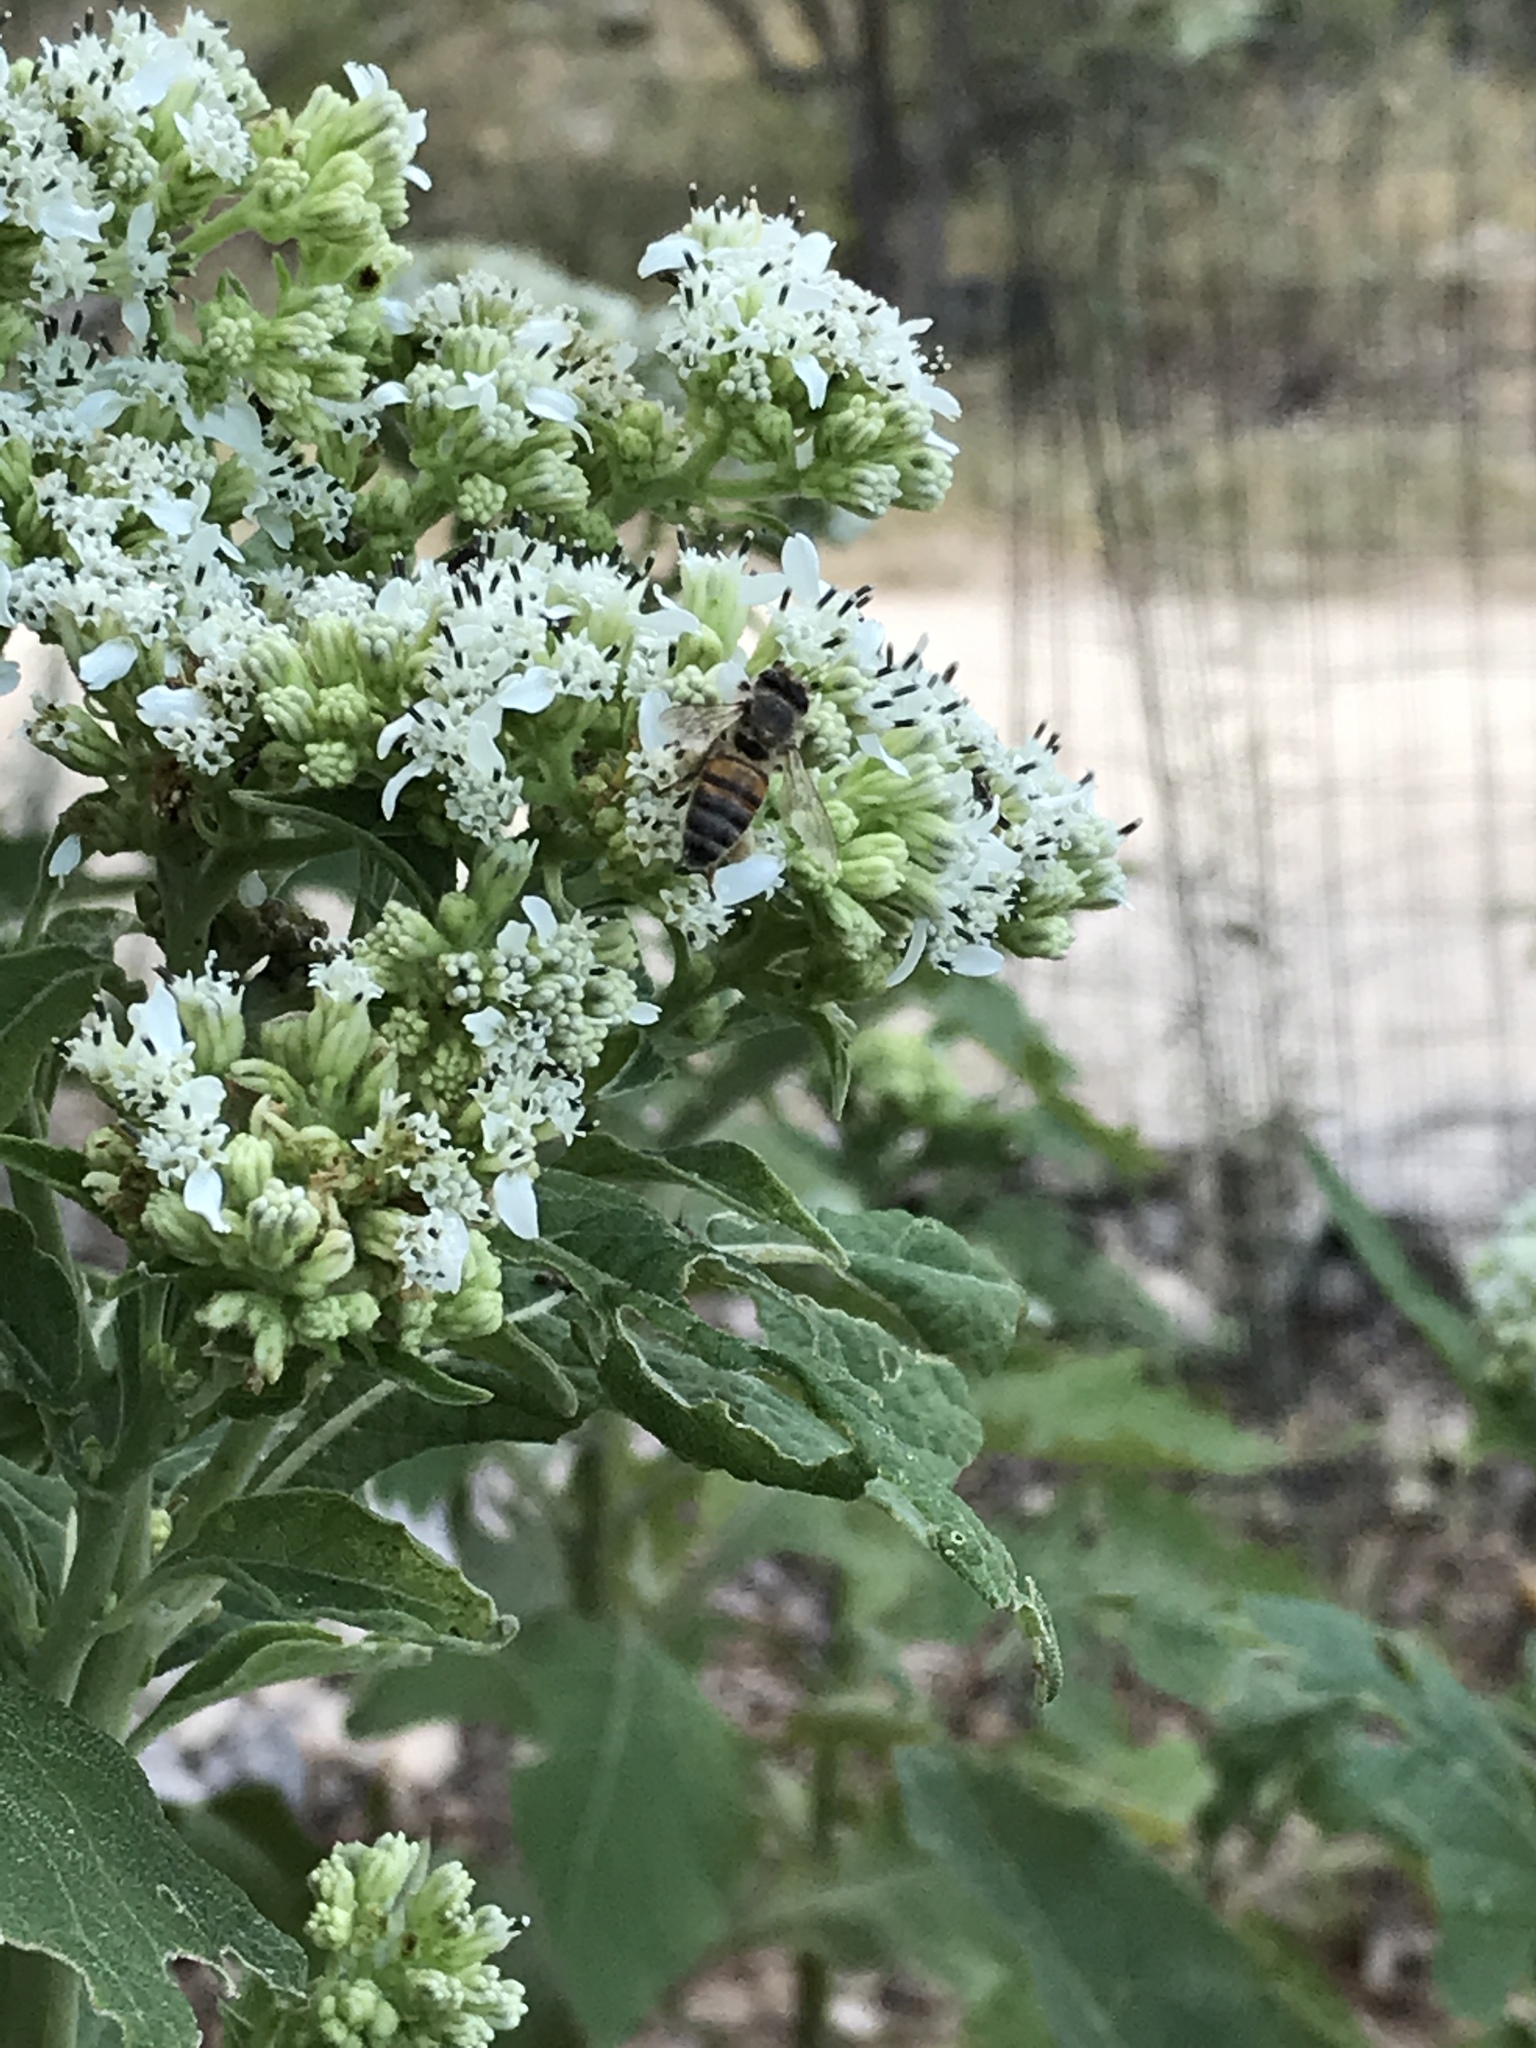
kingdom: Animalia
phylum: Arthropoda
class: Insecta
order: Hymenoptera
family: Apidae
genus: Apis
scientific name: Apis mellifera
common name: Honey bee
